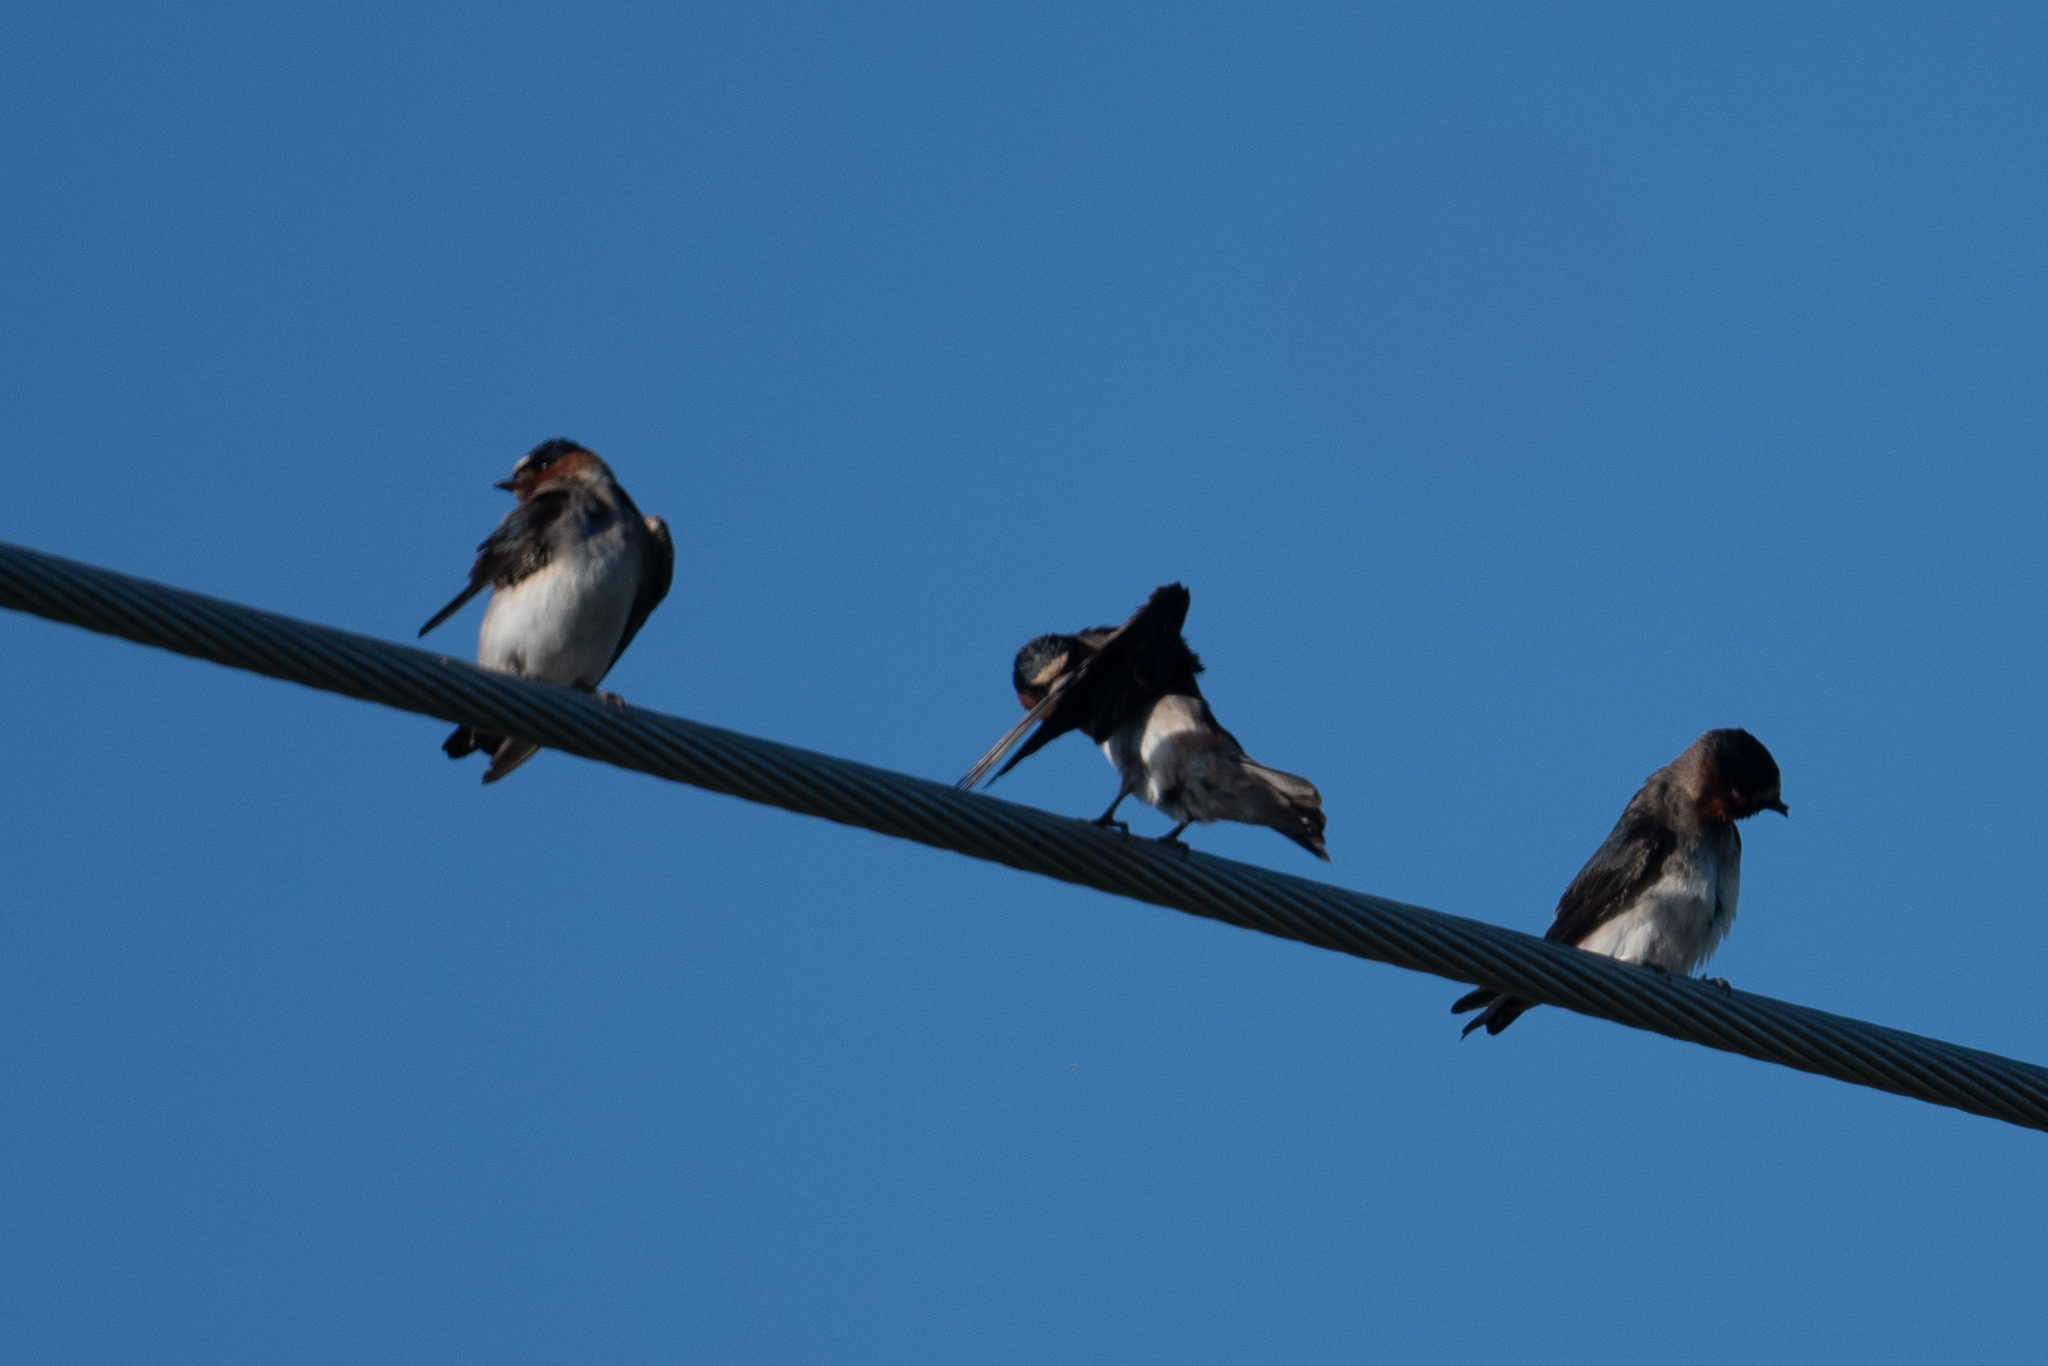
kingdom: Animalia
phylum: Chordata
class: Aves
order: Passeriformes
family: Hirundinidae
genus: Petrochelidon
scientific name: Petrochelidon pyrrhonota
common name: American cliff swallow
